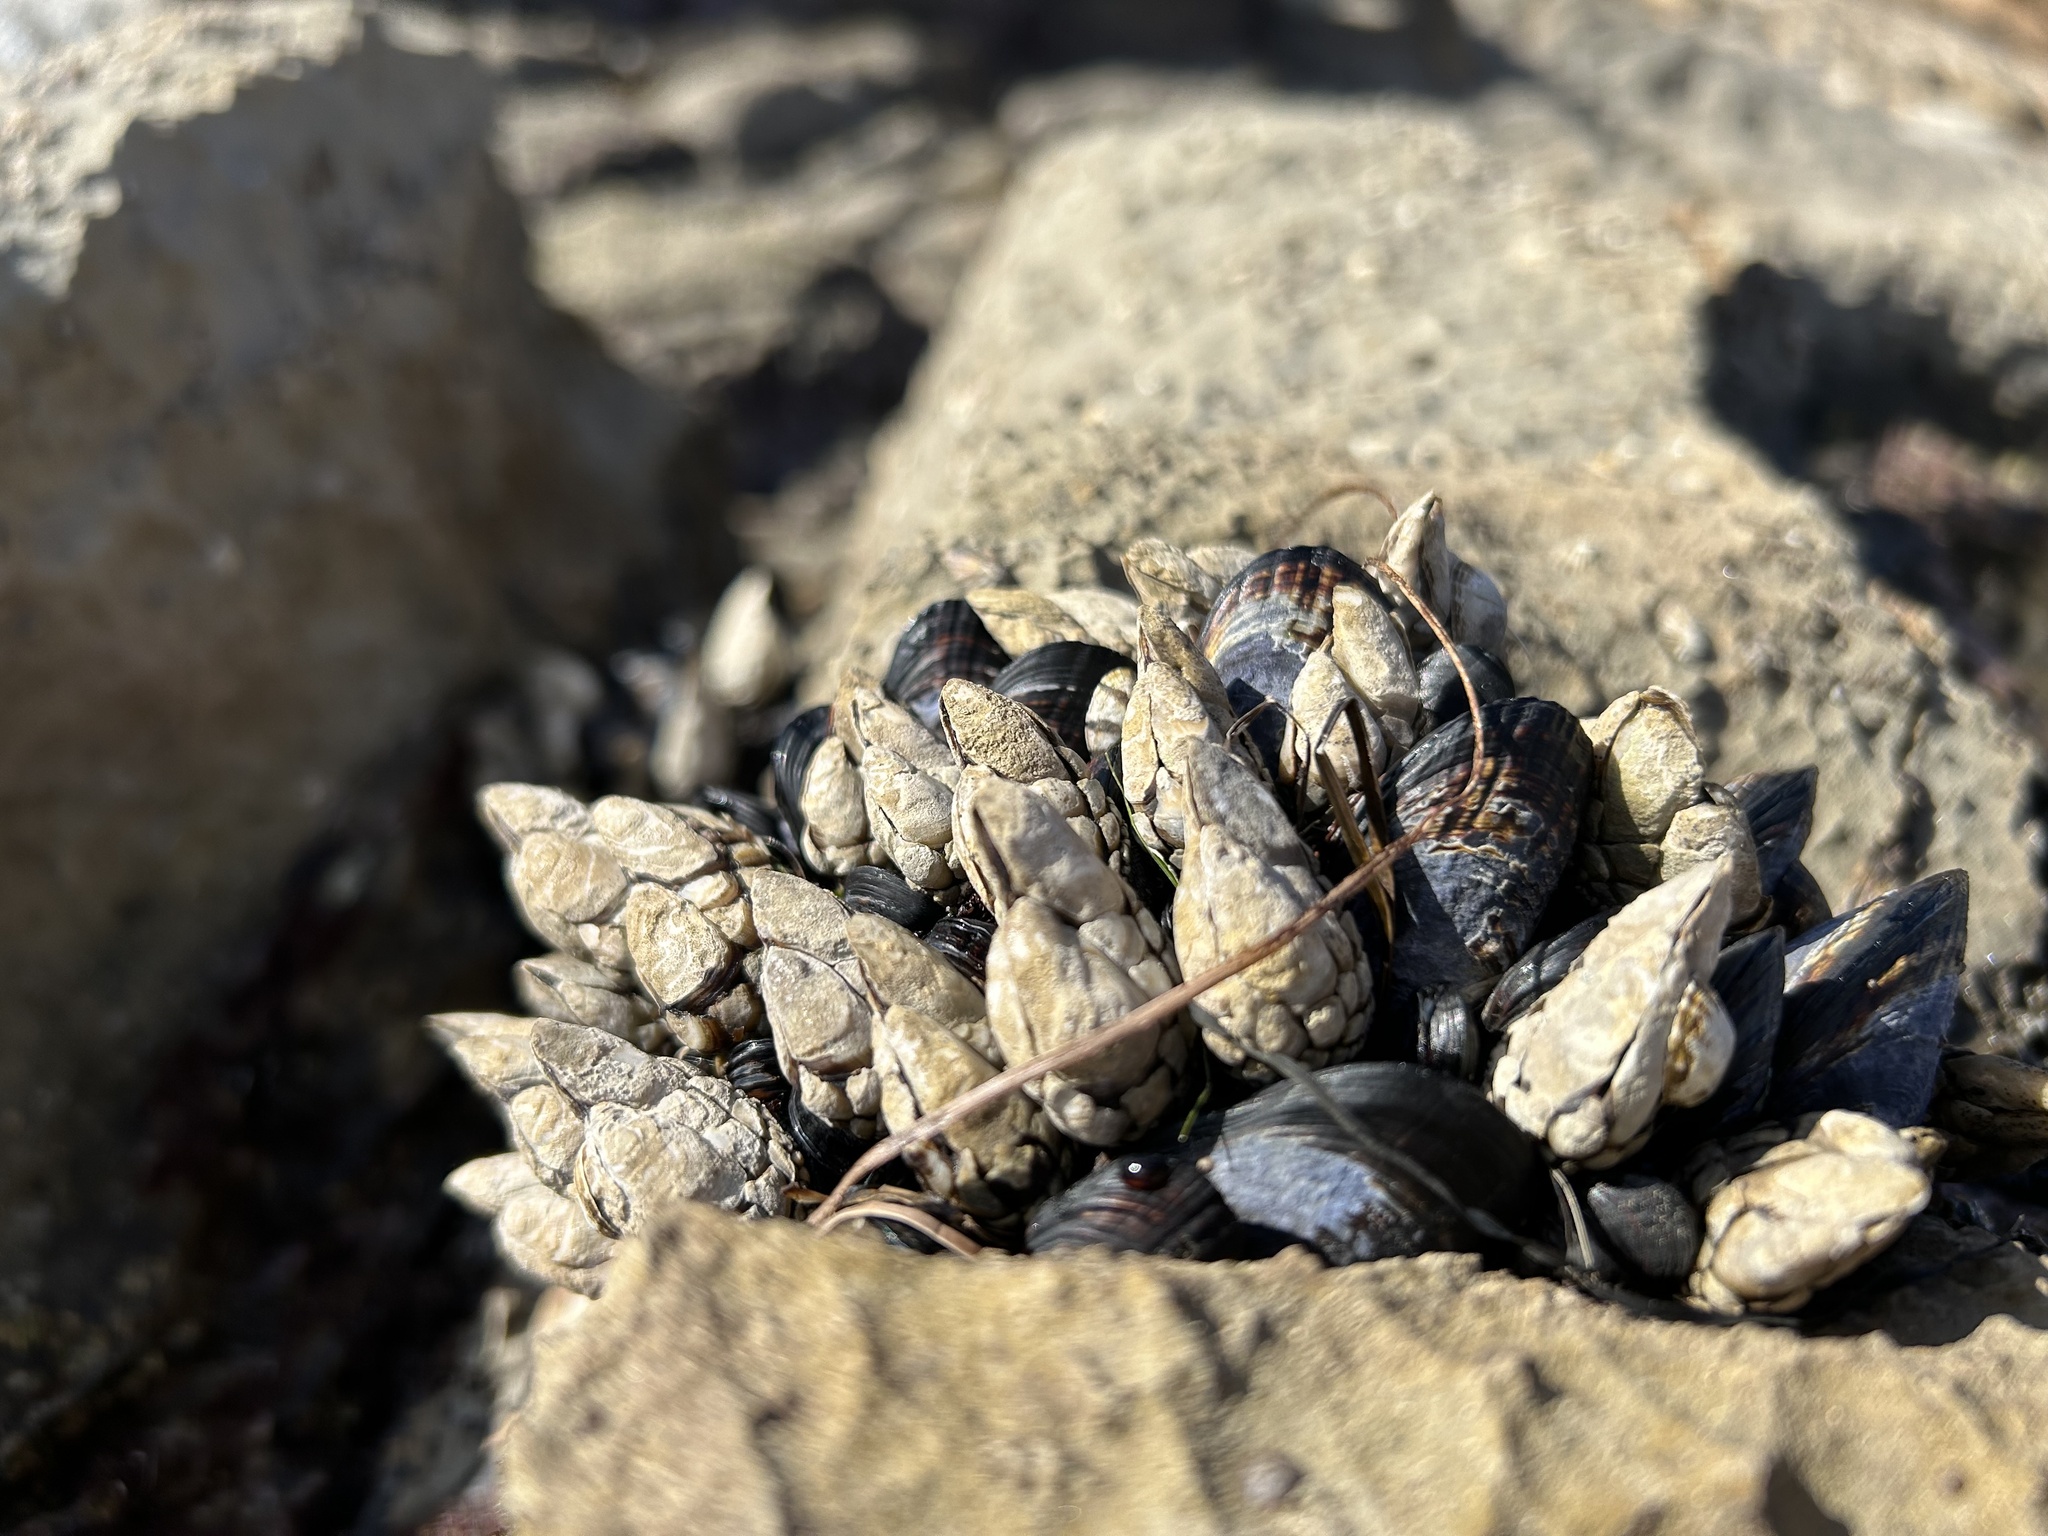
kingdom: Animalia
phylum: Arthropoda
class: Maxillopoda
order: Pedunculata
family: Pollicipedidae
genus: Pollicipes
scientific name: Pollicipes polymerus
